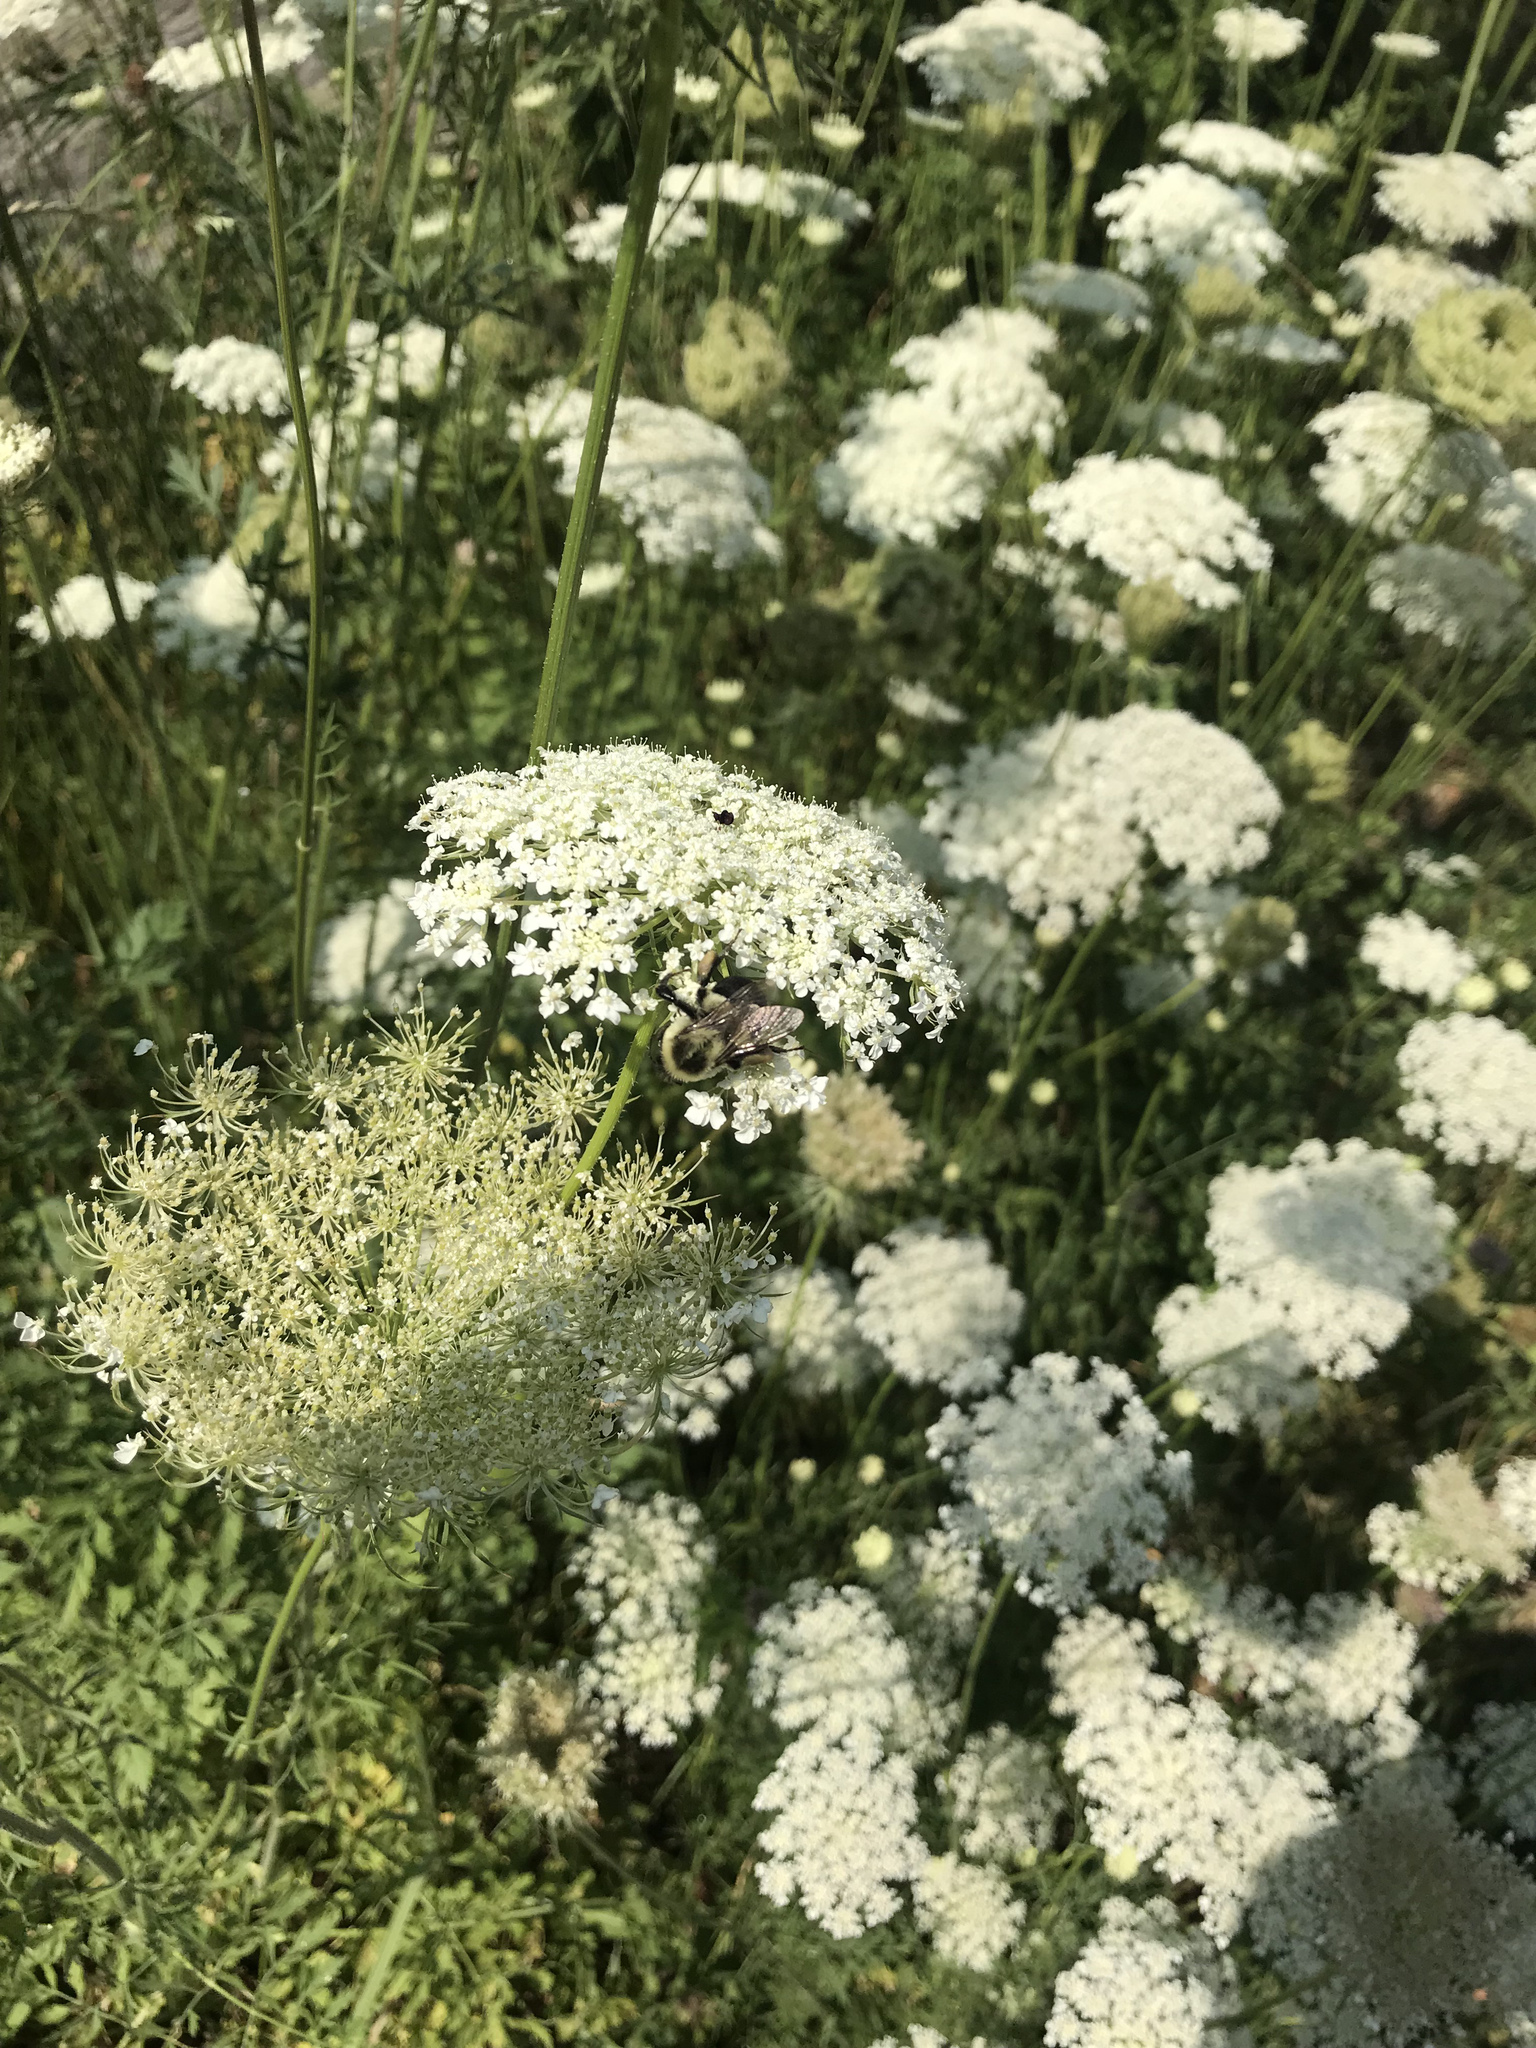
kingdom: Animalia
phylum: Arthropoda
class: Insecta
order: Hymenoptera
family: Apidae
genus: Bombus
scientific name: Bombus impatiens
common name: Common eastern bumble bee
